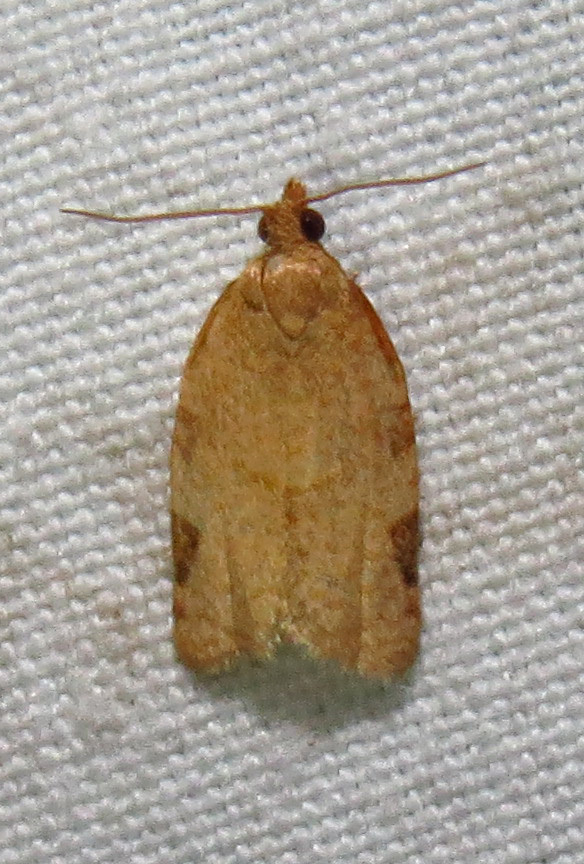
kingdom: Animalia
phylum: Arthropoda
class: Insecta
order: Lepidoptera
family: Tortricidae
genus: Clepsis
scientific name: Clepsis virescana
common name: Greenish apple moth
